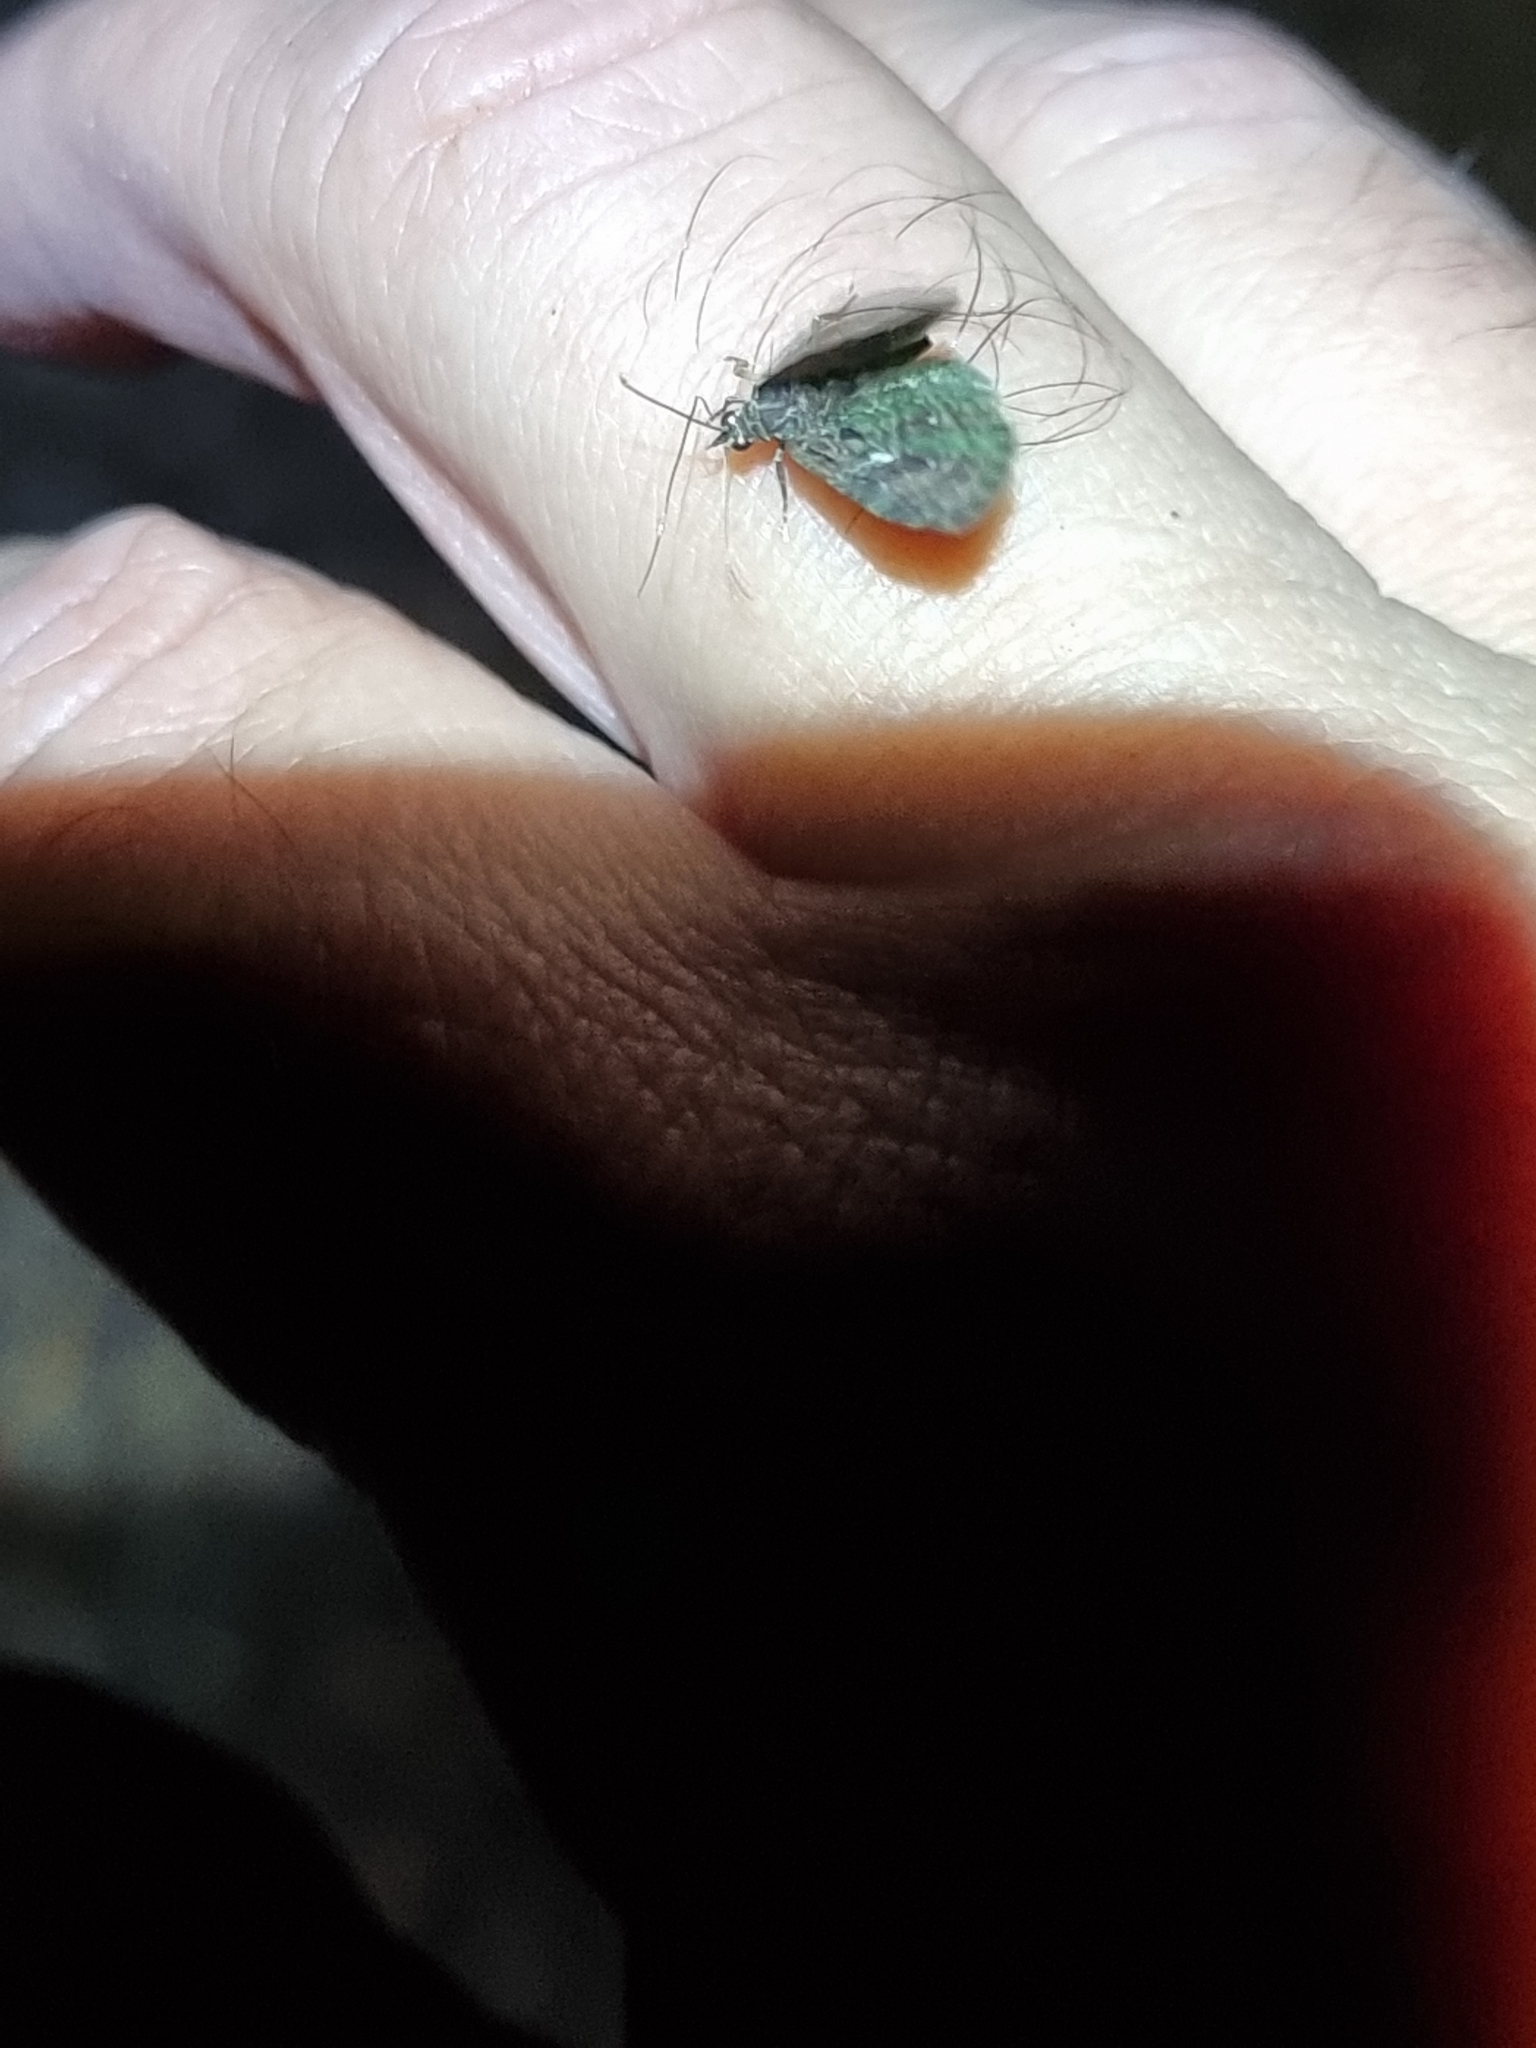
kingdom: Animalia
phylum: Arthropoda
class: Insecta
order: Lepidoptera
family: Geometridae
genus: Symmimetis
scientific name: Symmimetis muscosa
